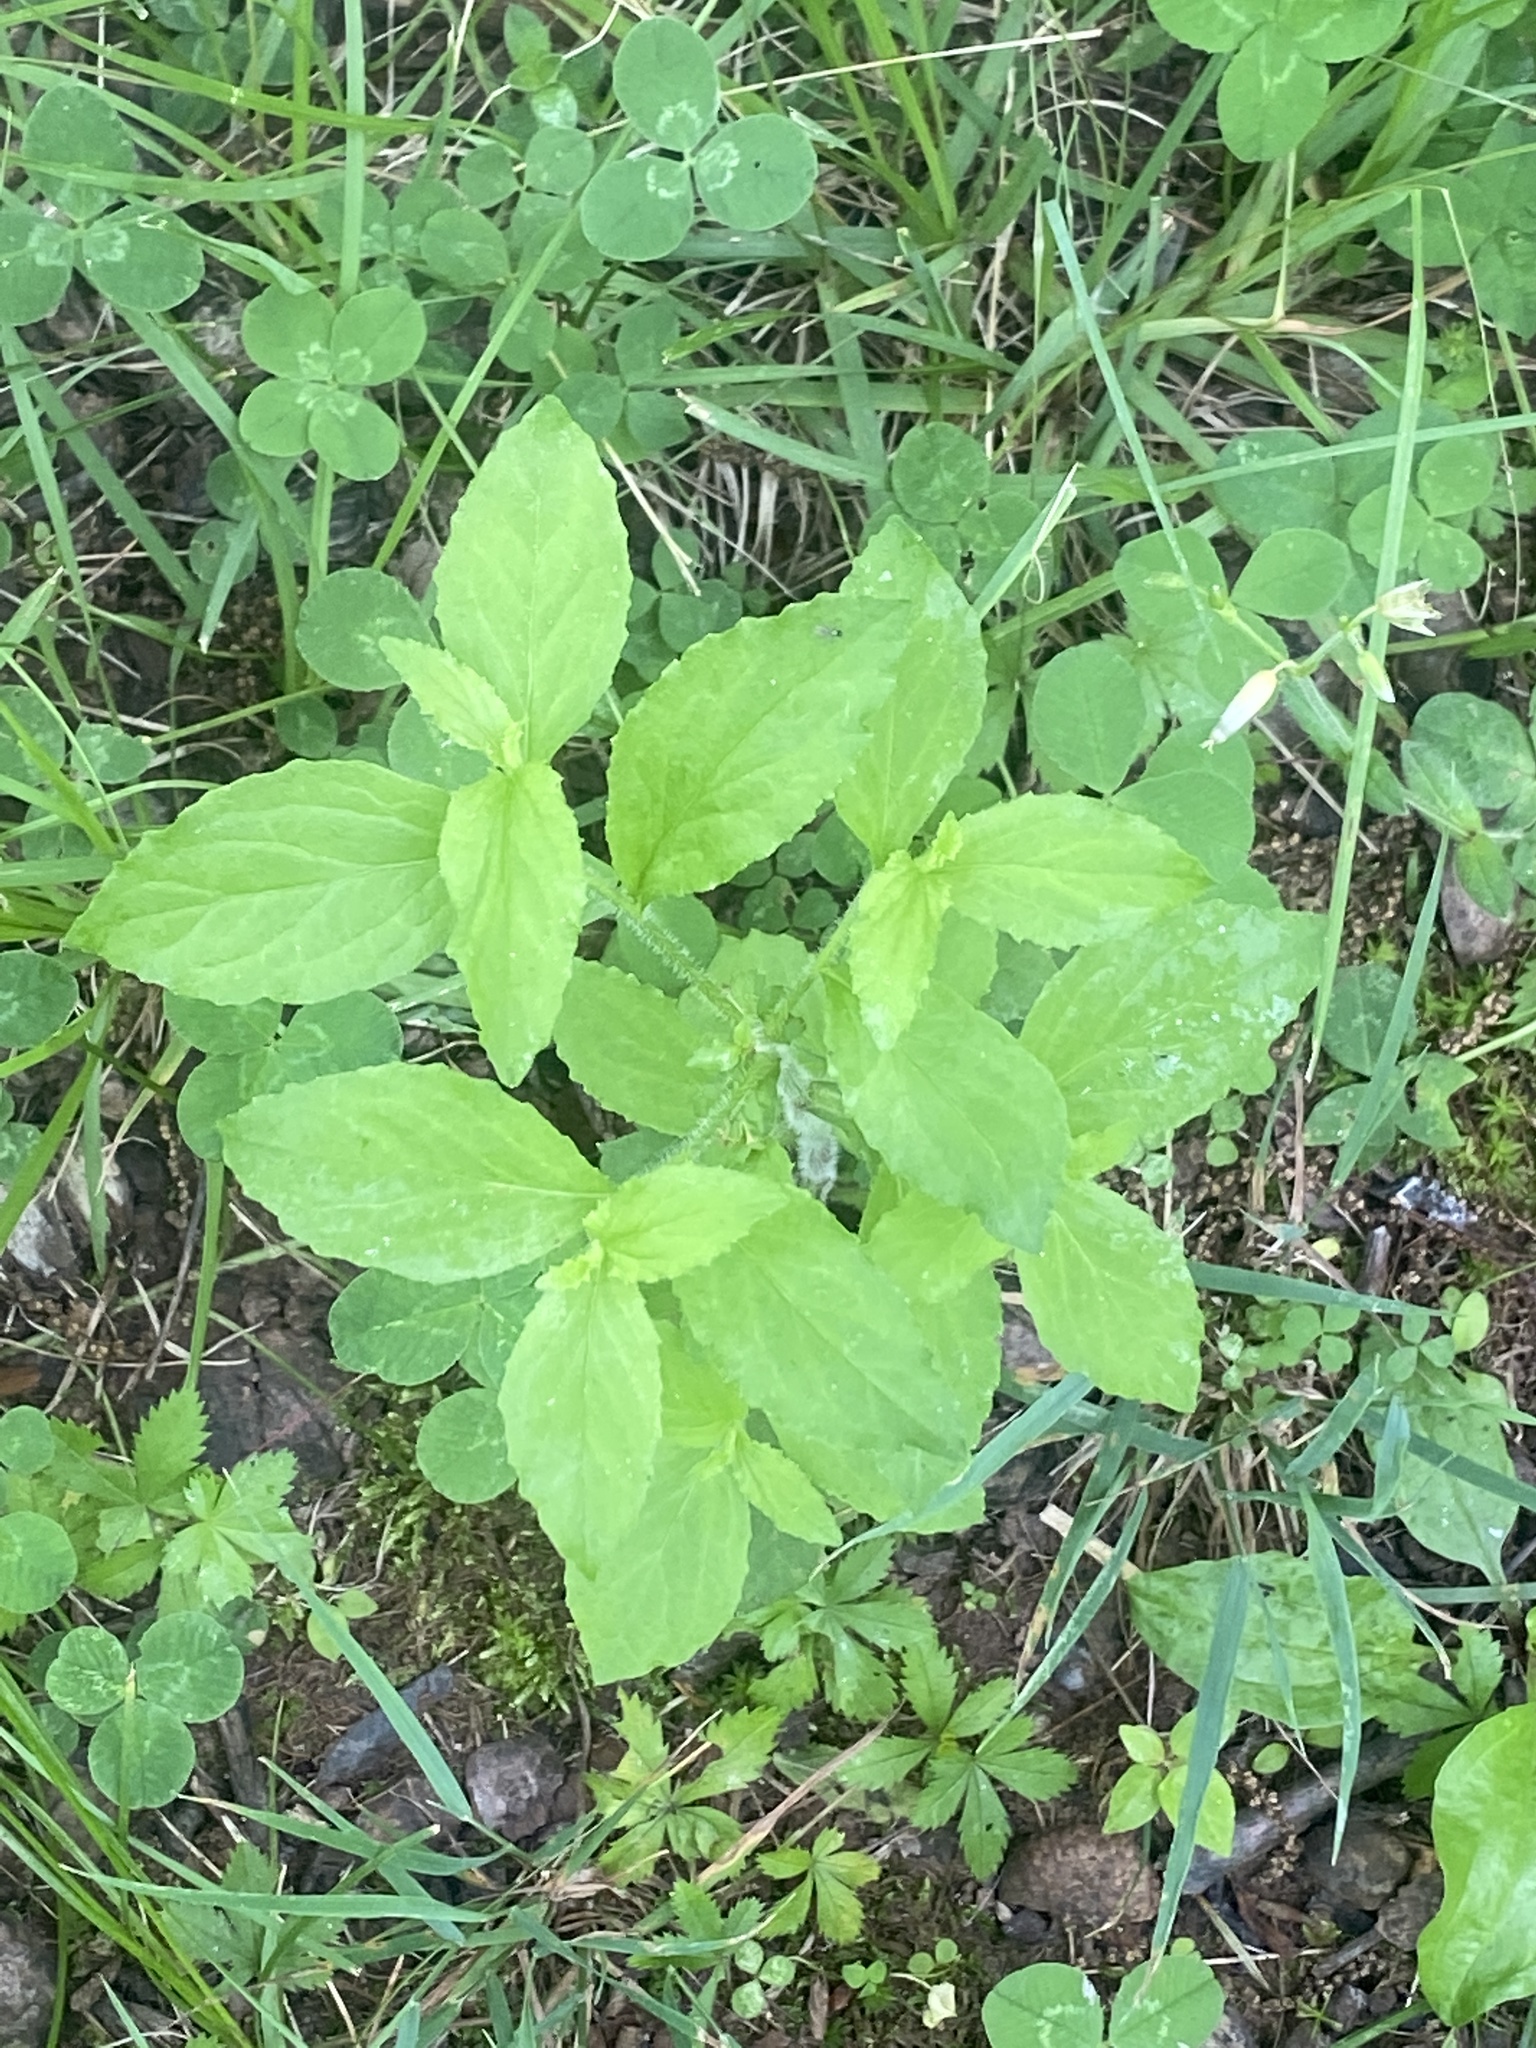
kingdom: Plantae
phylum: Tracheophyta
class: Magnoliopsida
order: Asterales
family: Campanulaceae
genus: Lobelia
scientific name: Lobelia inflata
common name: Indian tobacco
